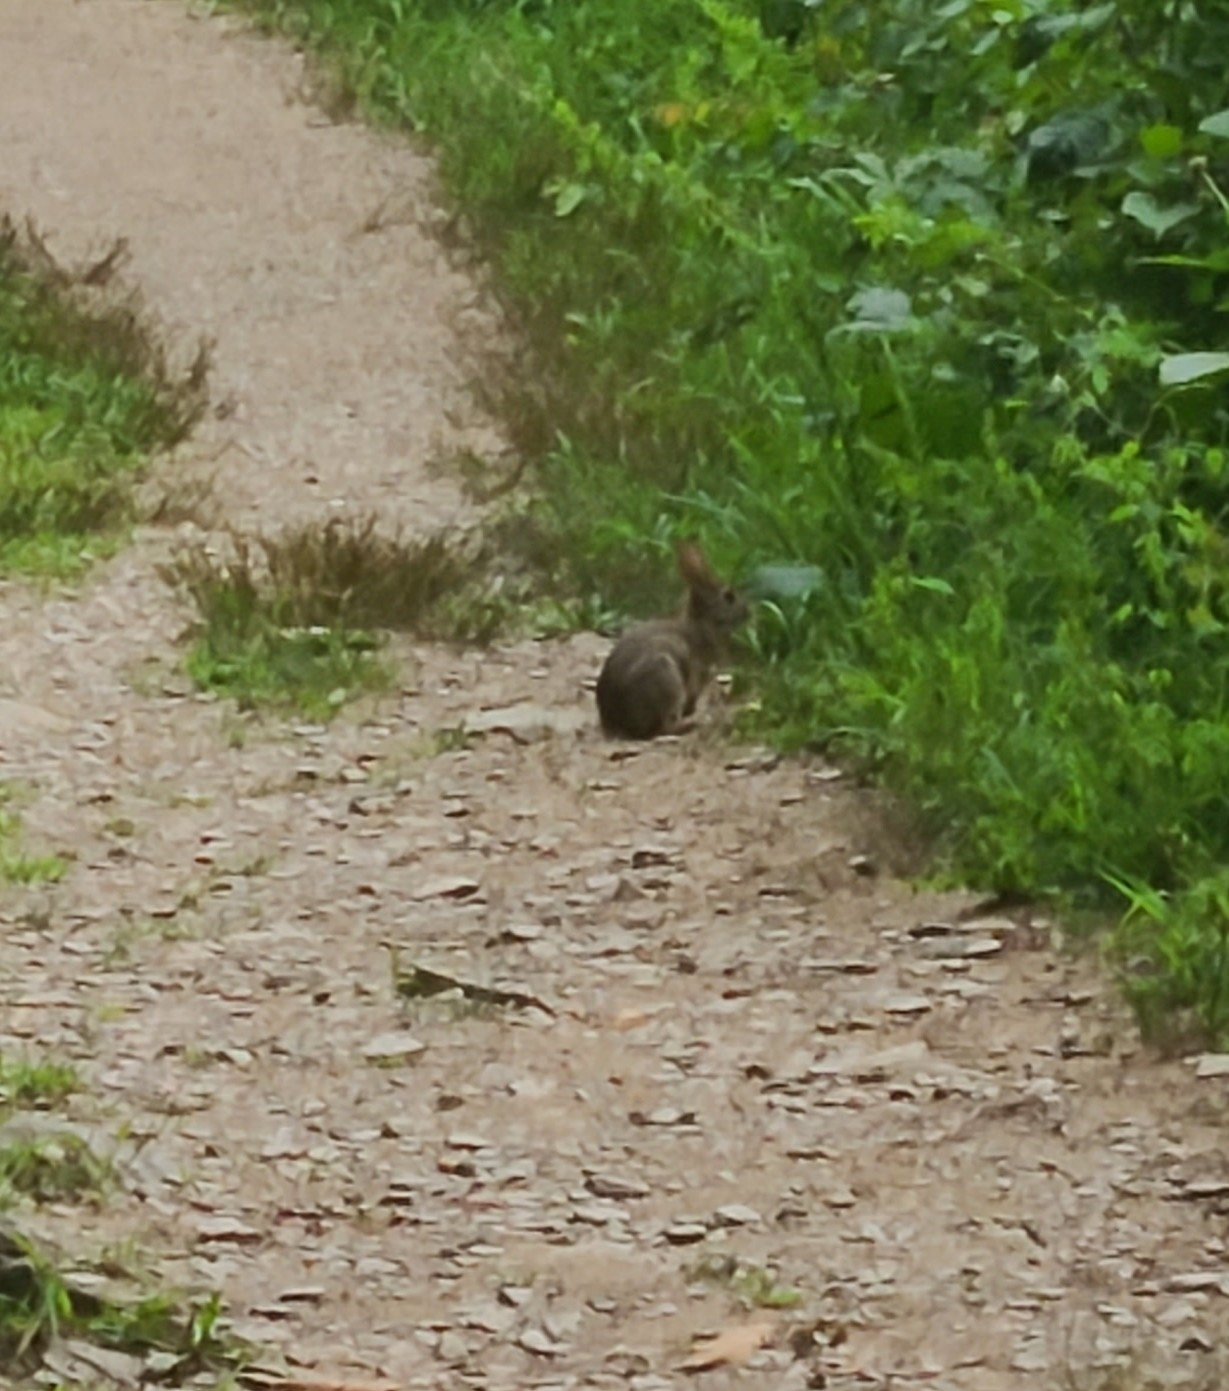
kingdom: Animalia
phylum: Chordata
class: Mammalia
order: Lagomorpha
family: Leporidae
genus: Sylvilagus
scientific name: Sylvilagus floridanus
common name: Eastern cottontail
